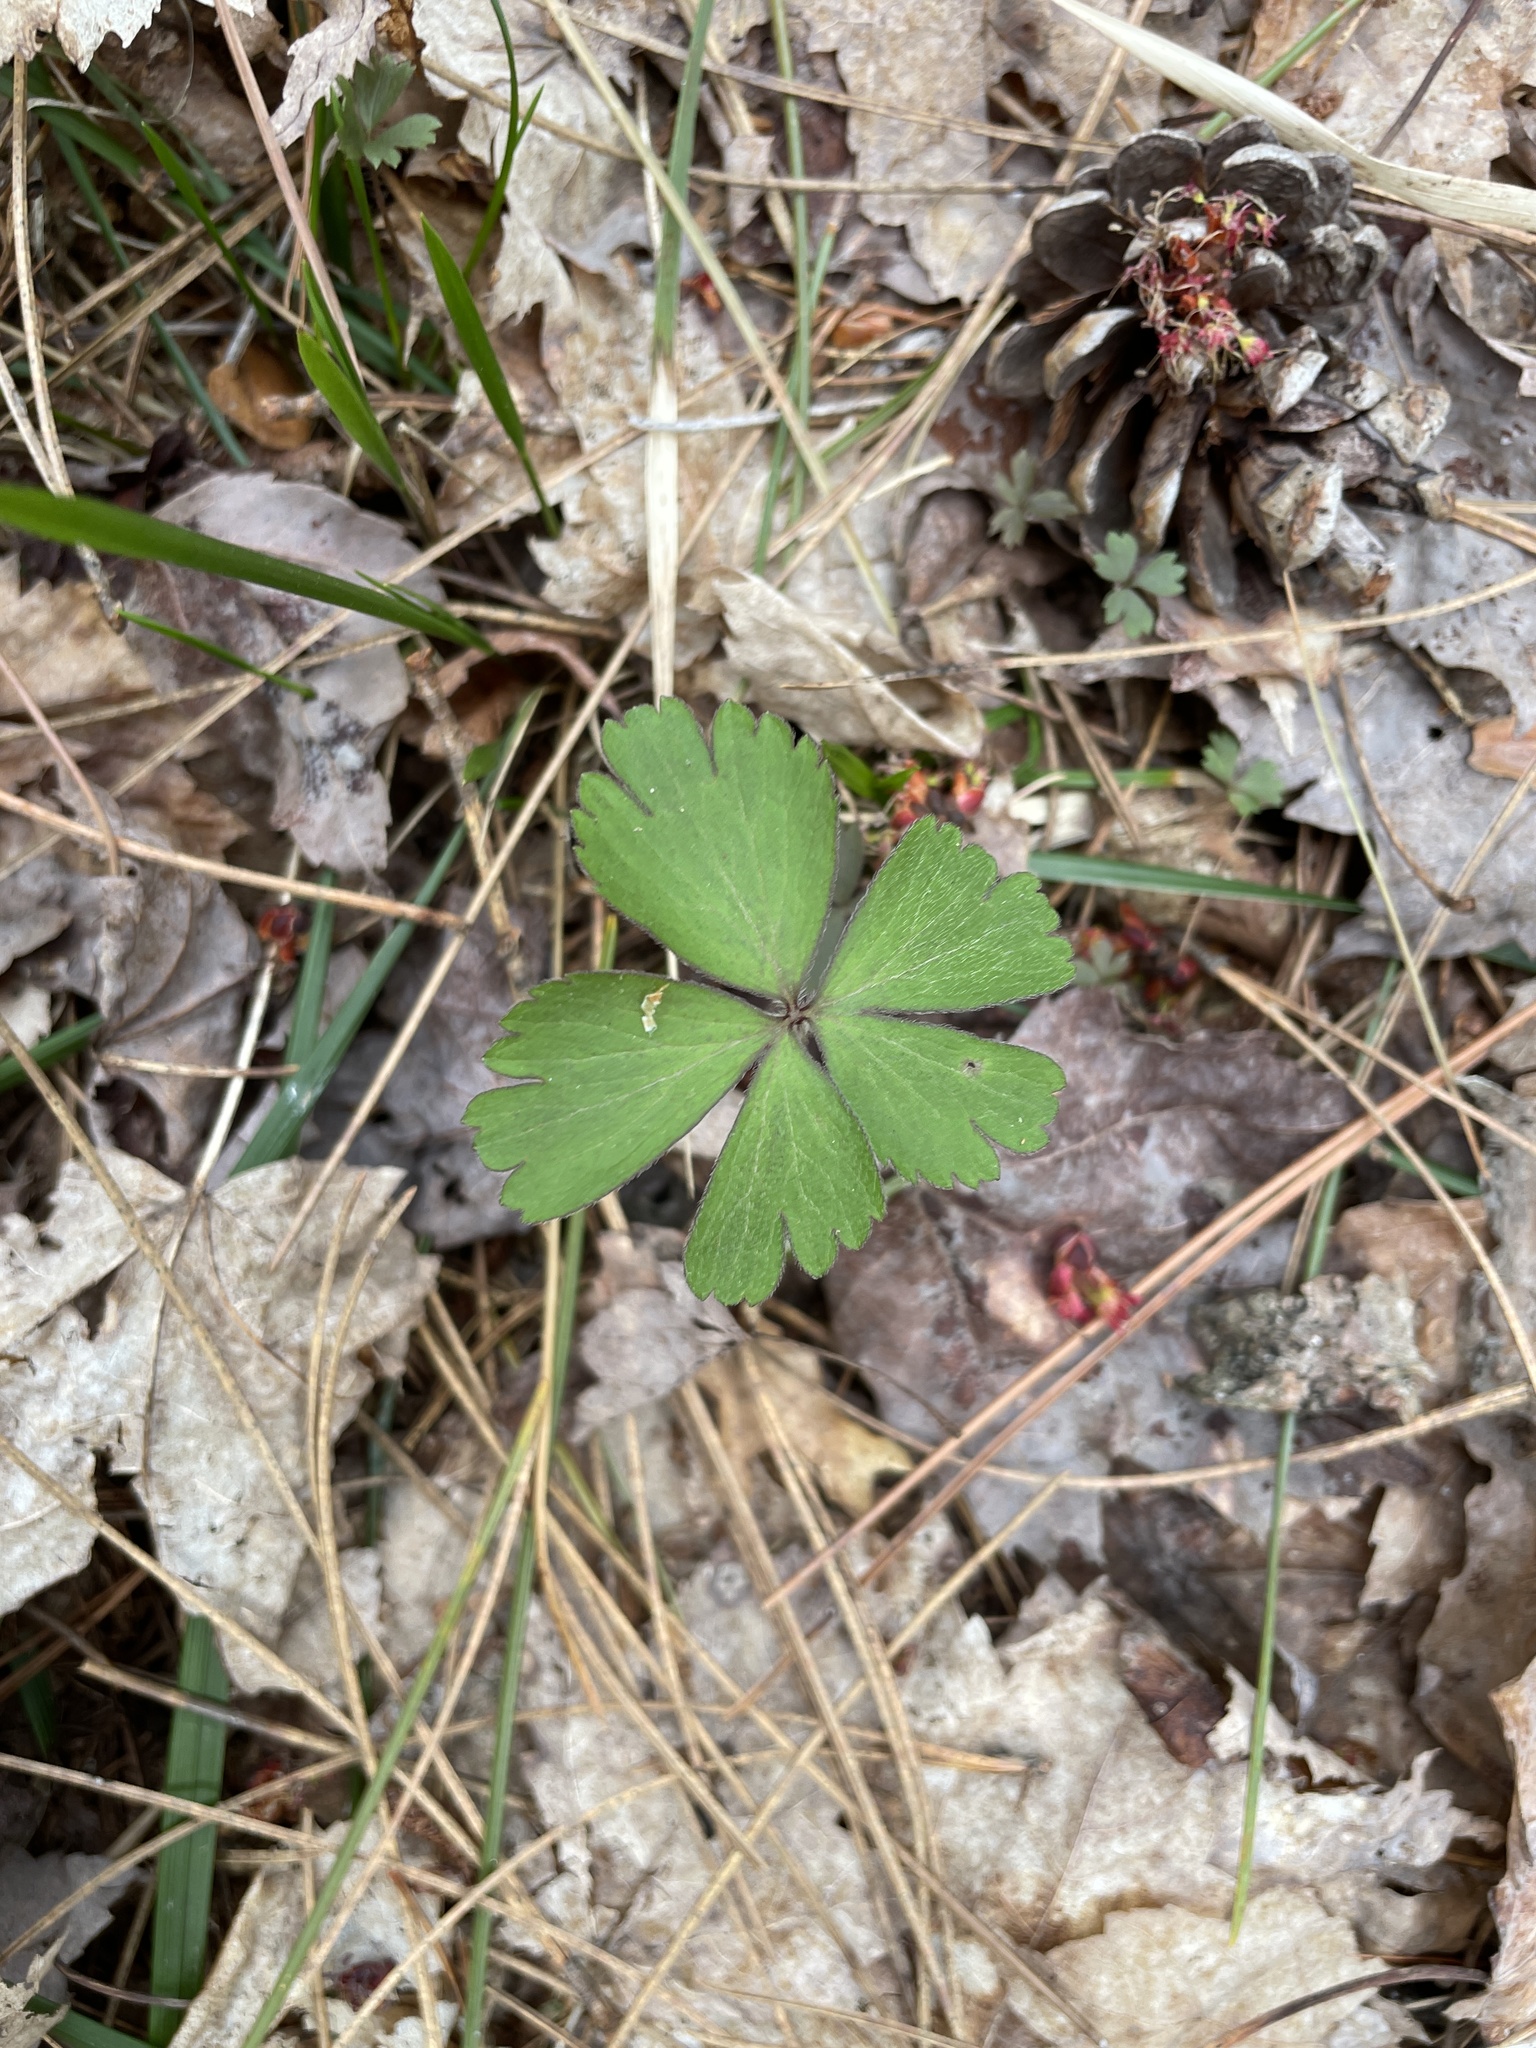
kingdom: Plantae
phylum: Tracheophyta
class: Magnoliopsida
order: Ranunculales
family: Ranunculaceae
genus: Anemone
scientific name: Anemone quinquefolia
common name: Wood anemone
